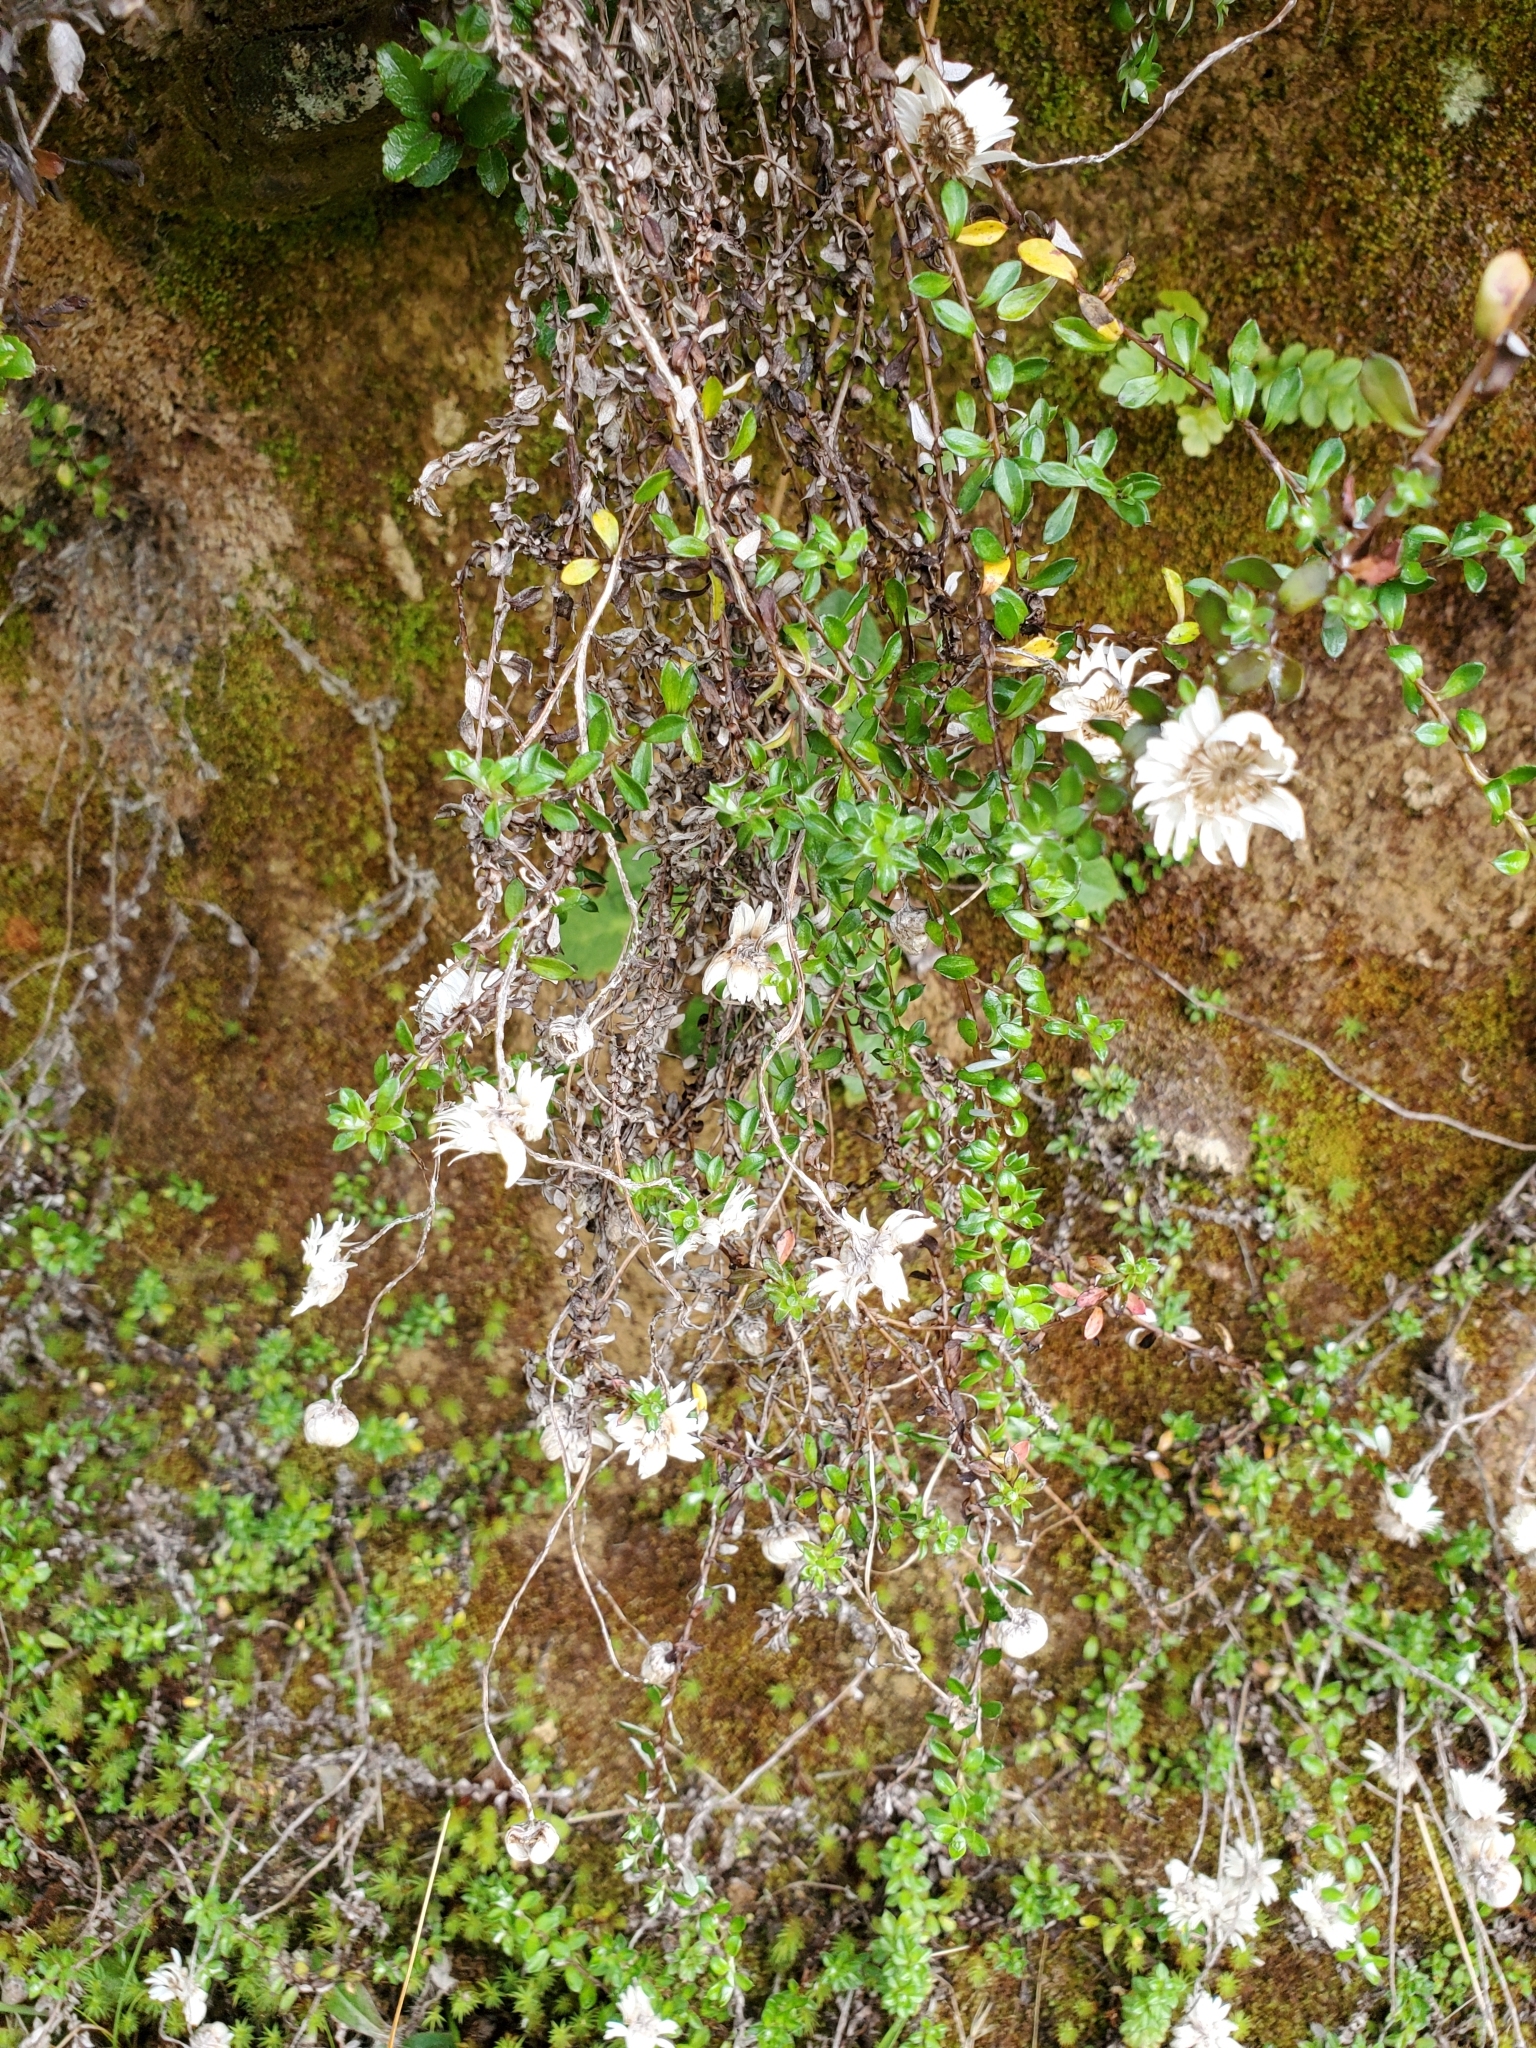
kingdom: Plantae
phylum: Tracheophyta
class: Magnoliopsida
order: Asterales
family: Asteraceae
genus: Anaphalioides
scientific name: Anaphalioides bellidioides
